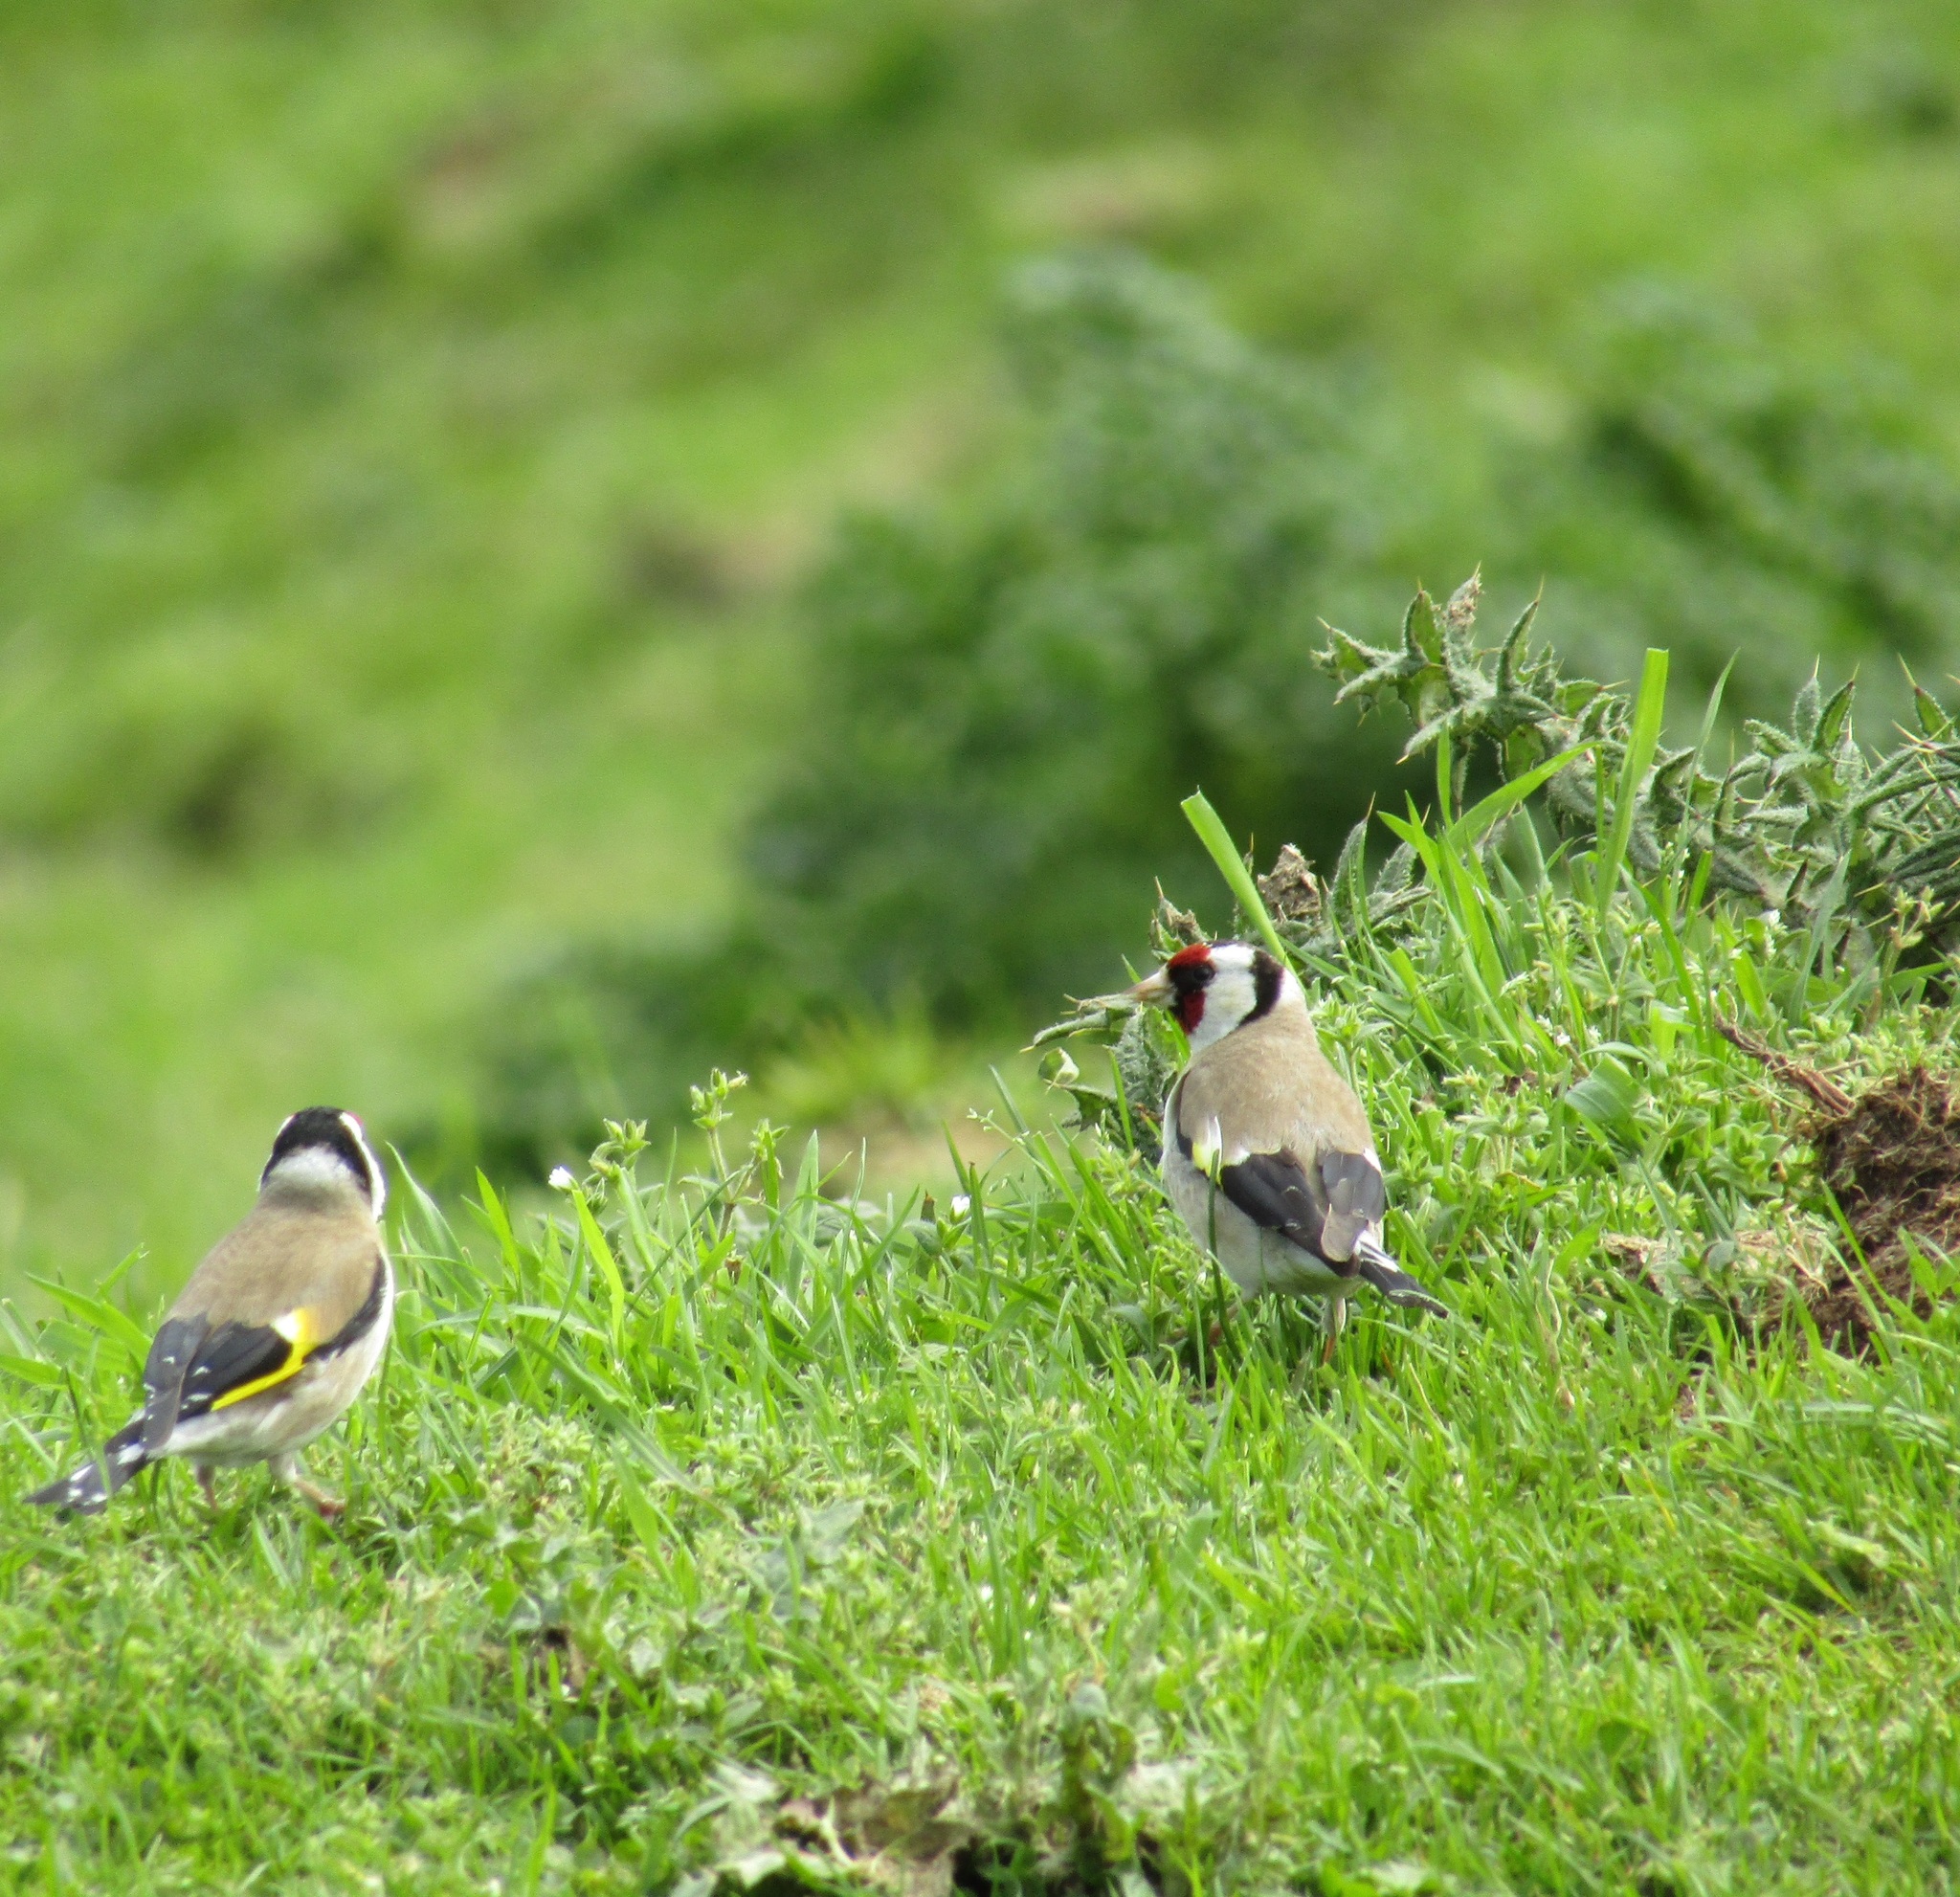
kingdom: Animalia
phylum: Chordata
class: Aves
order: Passeriformes
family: Fringillidae
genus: Carduelis
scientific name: Carduelis carduelis
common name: European goldfinch
